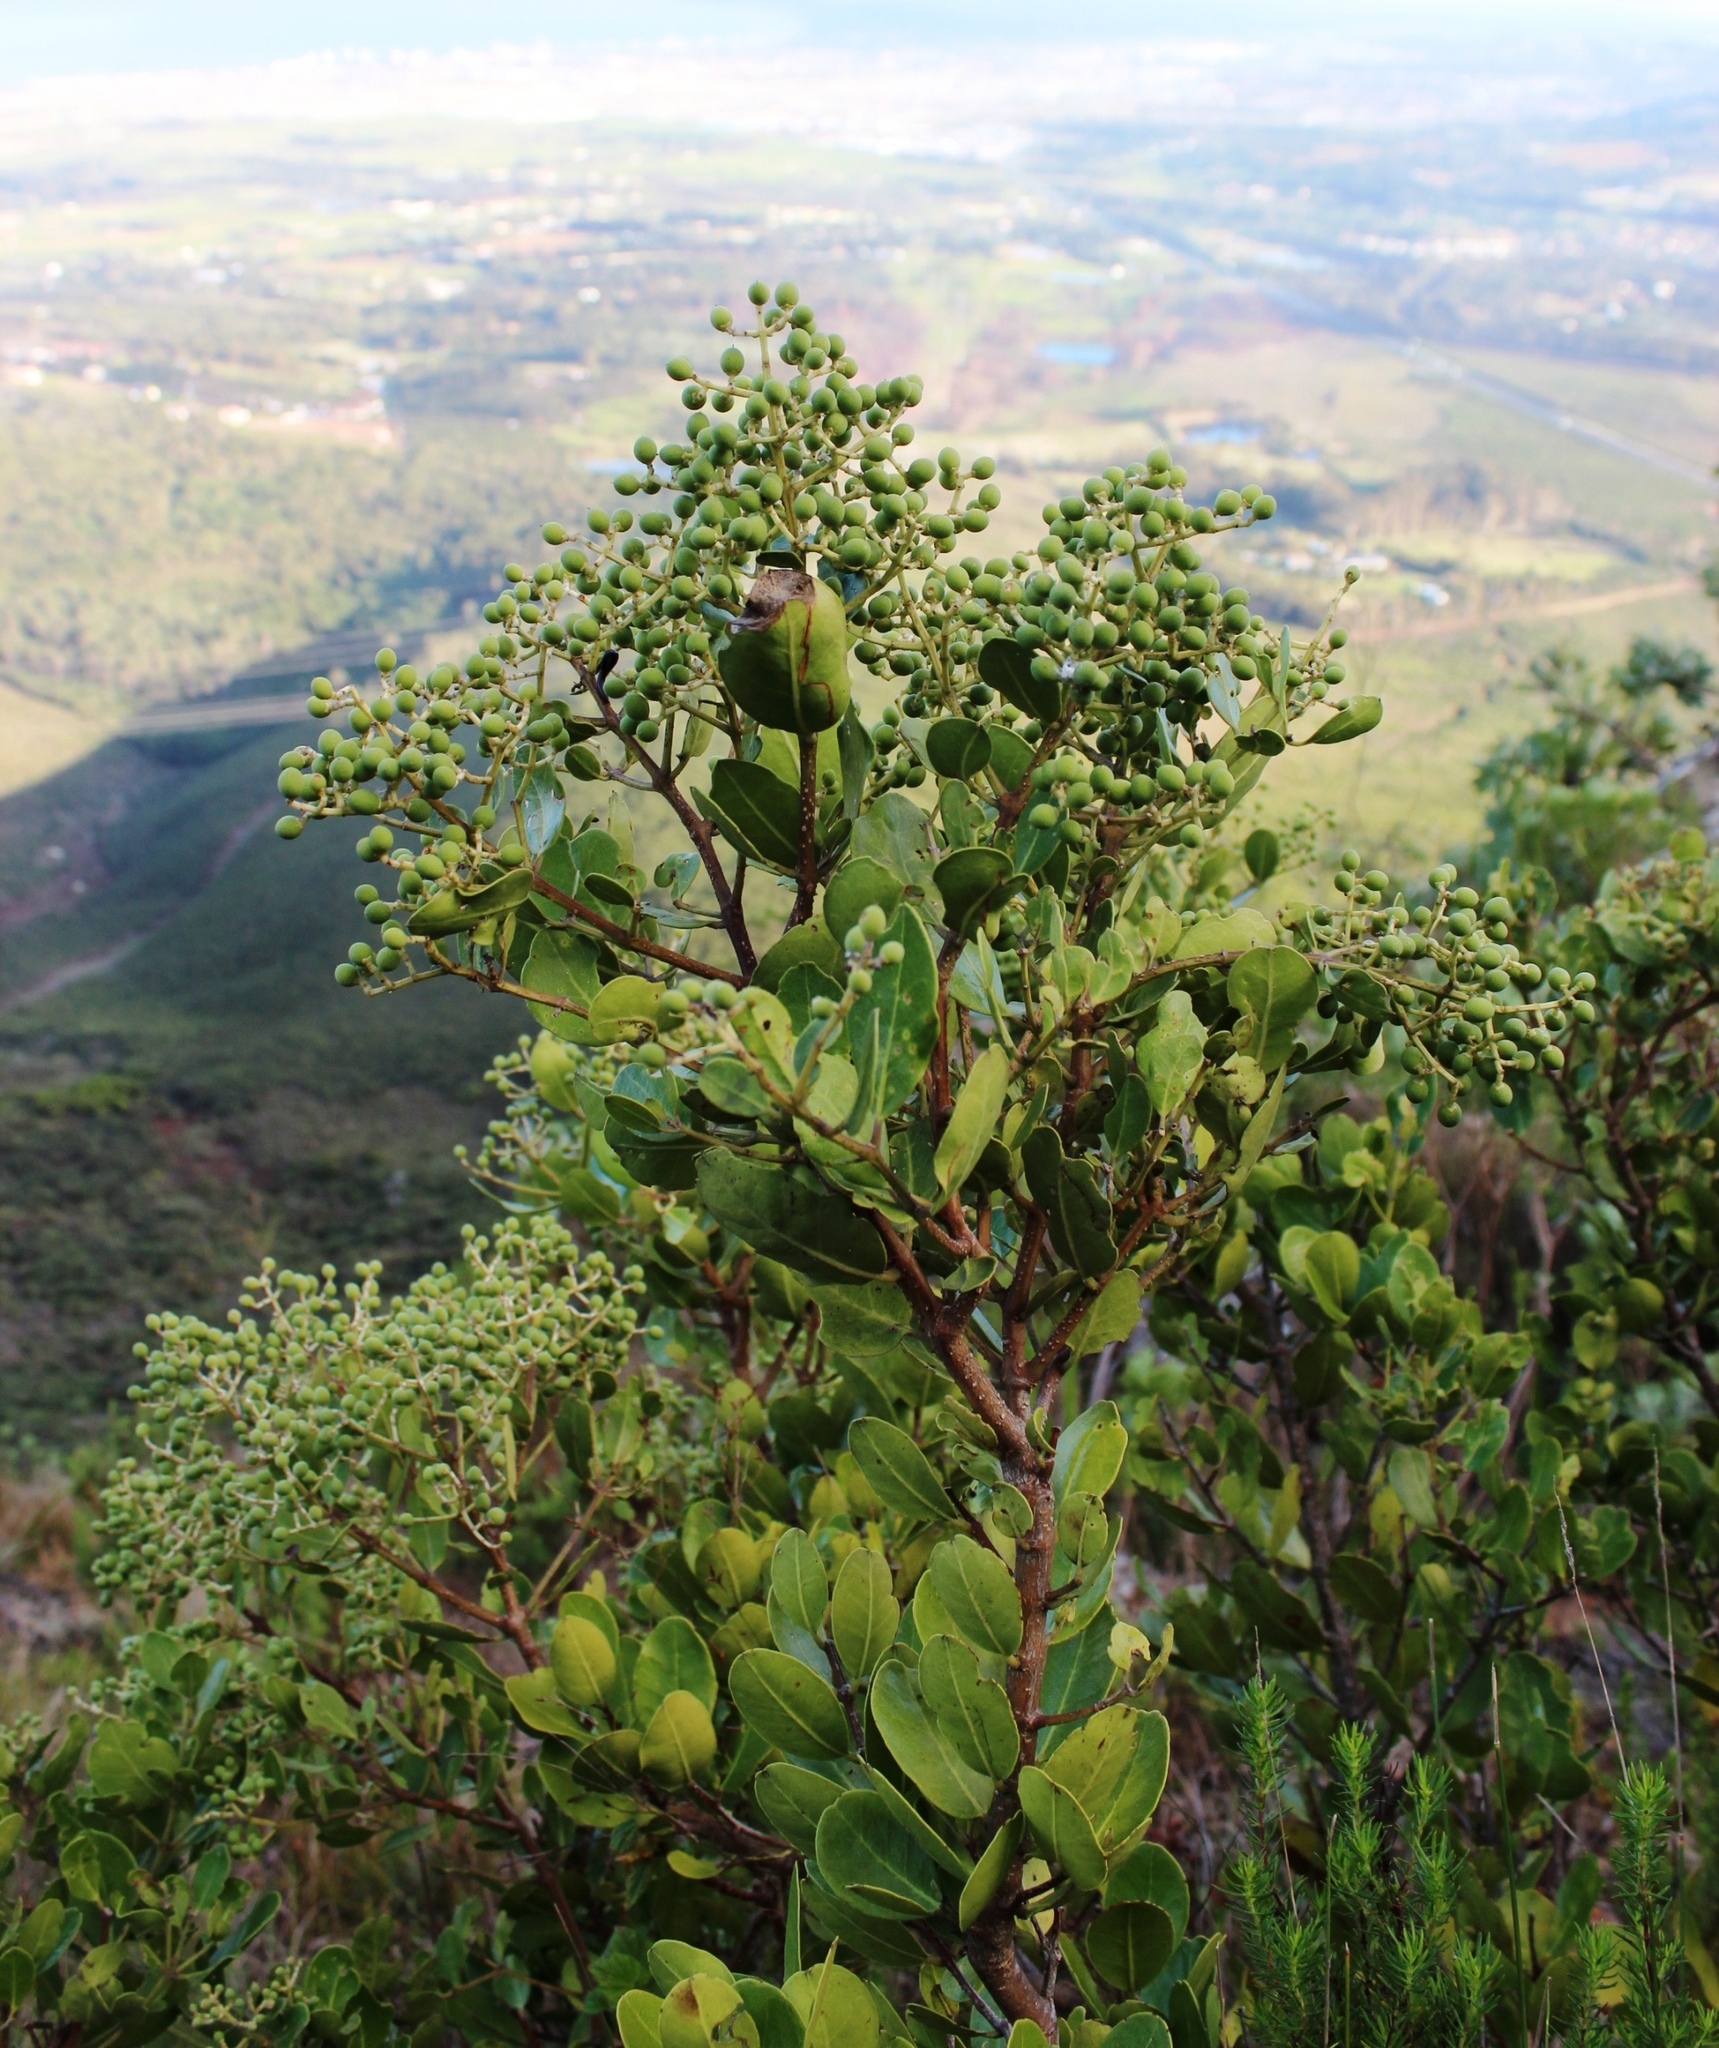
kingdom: Plantae
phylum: Tracheophyta
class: Magnoliopsida
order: Lamiales
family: Oleaceae
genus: Olea
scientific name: Olea capensis
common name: Black ironwood
